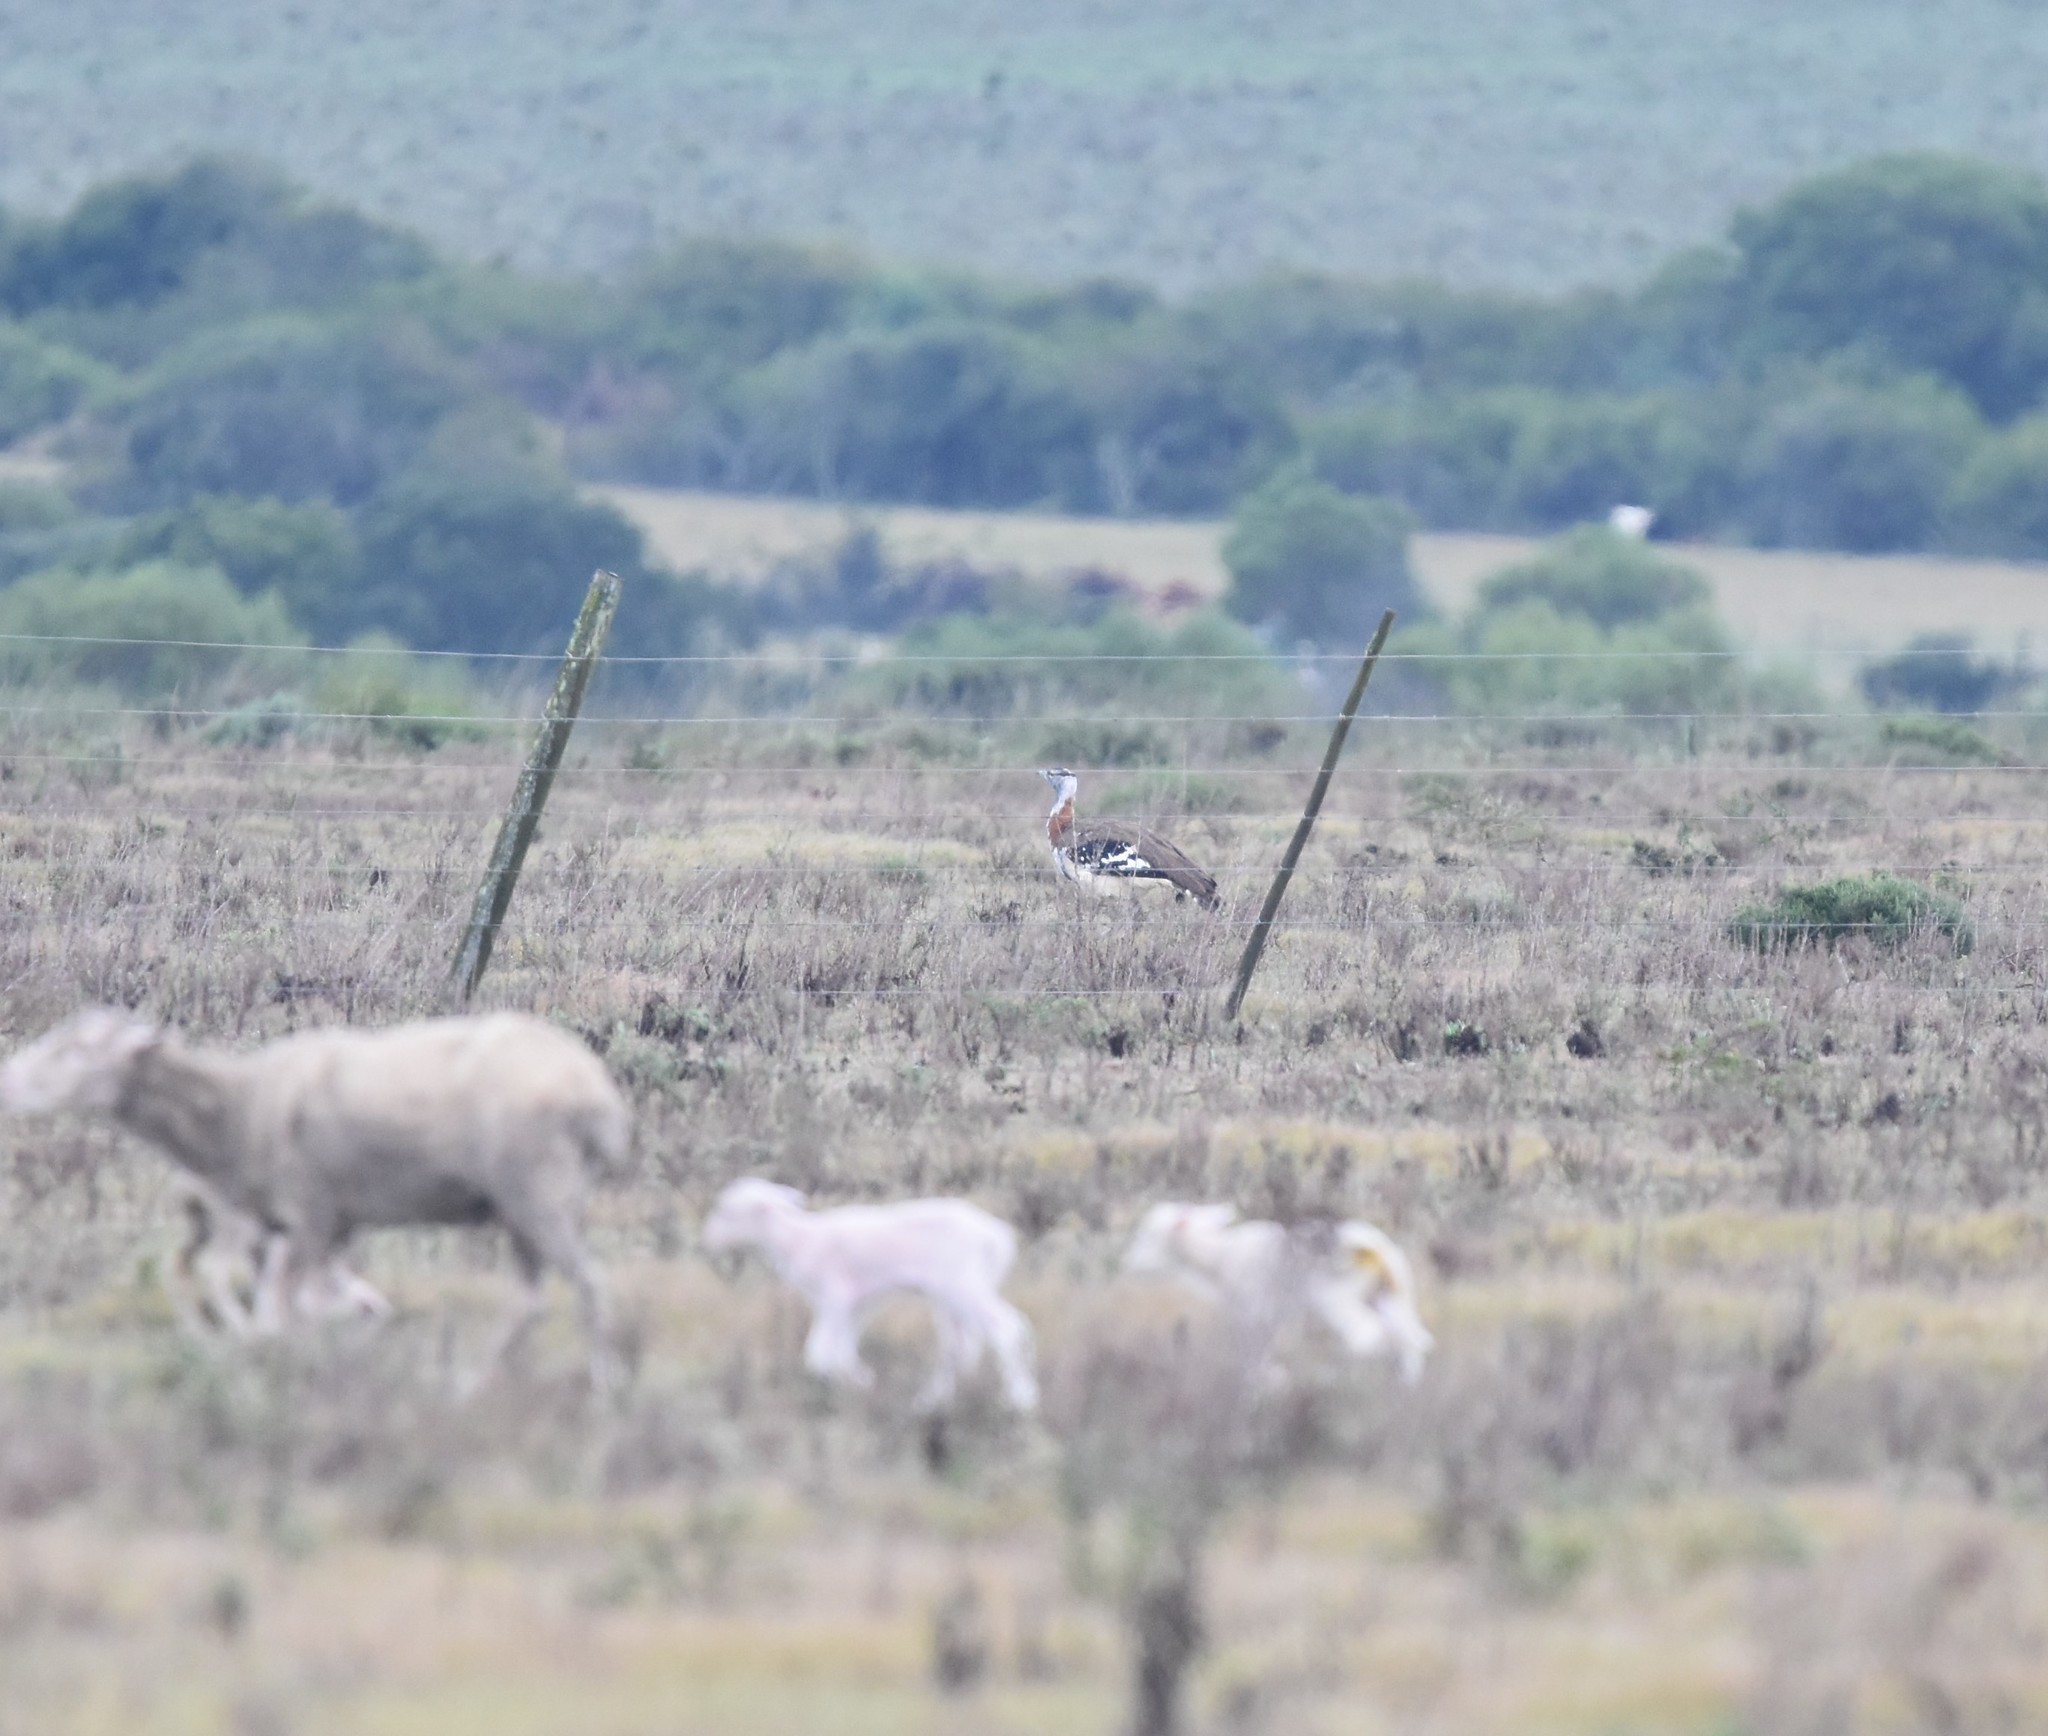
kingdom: Animalia
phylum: Chordata
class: Aves
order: Otidiformes
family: Otididae
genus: Neotis
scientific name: Neotis denhami
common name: Denham's bustard
